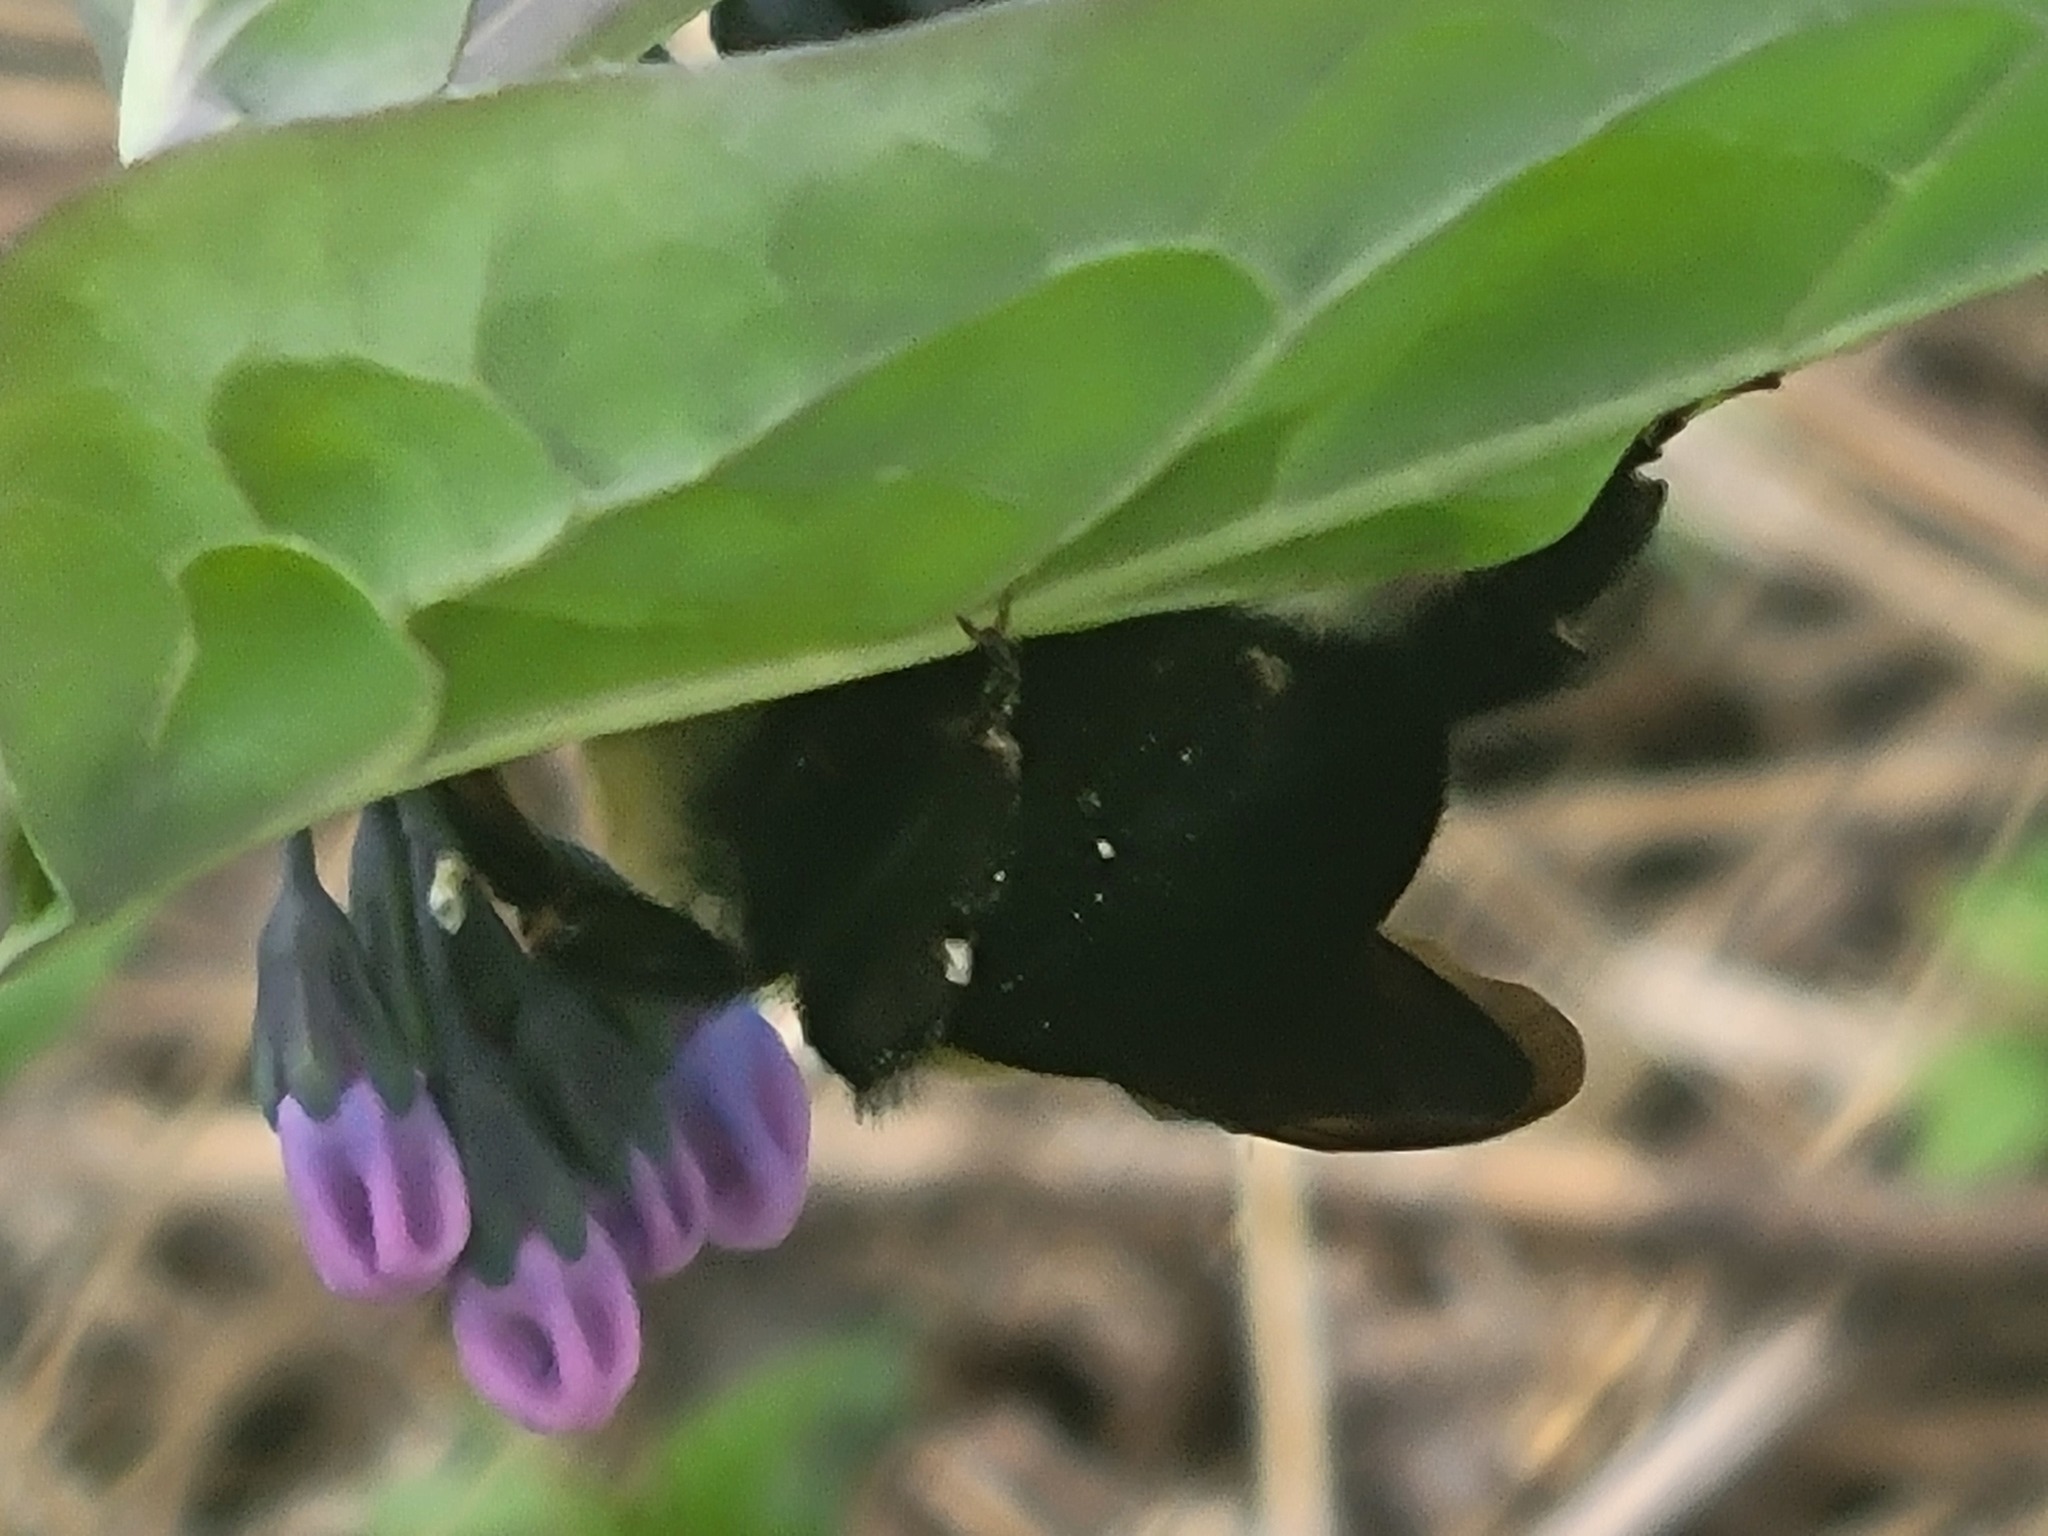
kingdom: Animalia
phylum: Arthropoda
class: Insecta
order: Hymenoptera
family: Apidae
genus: Bombus
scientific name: Bombus griseocollis
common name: Brown-belted bumble bee
